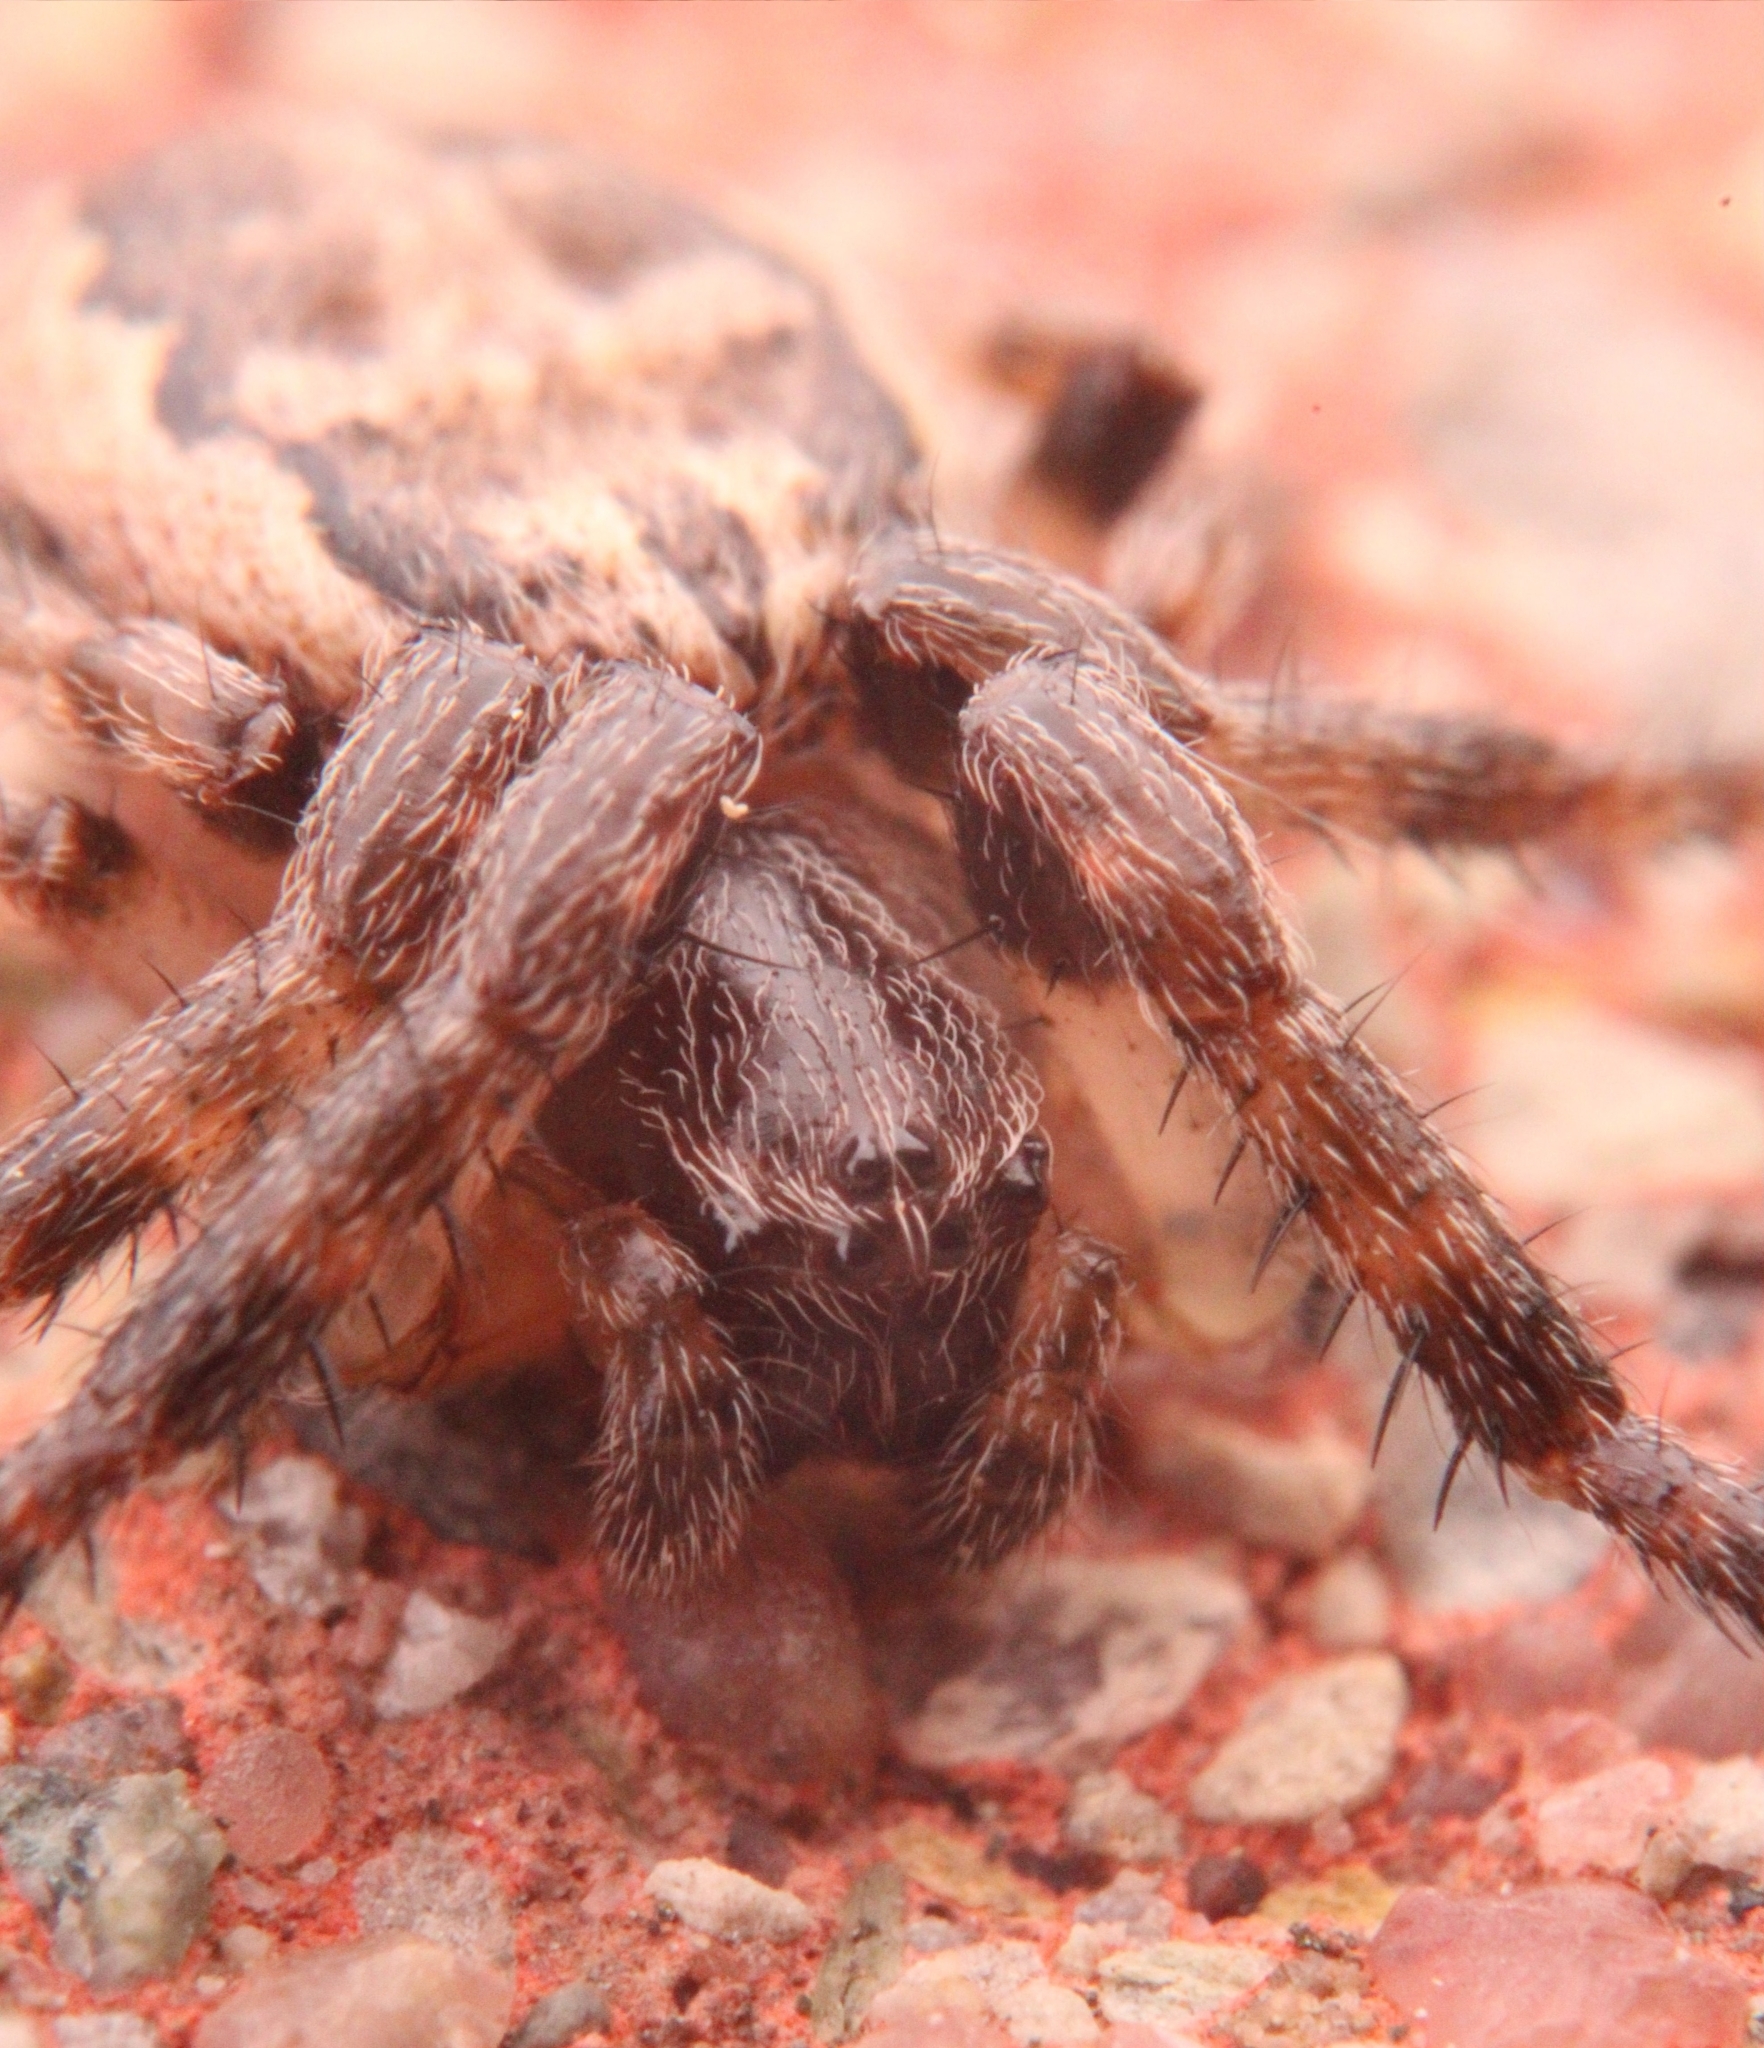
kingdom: Animalia
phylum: Arthropoda
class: Arachnida
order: Araneae
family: Araneidae
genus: Larinioides
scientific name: Larinioides cornutus
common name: Furrow orbweaver
